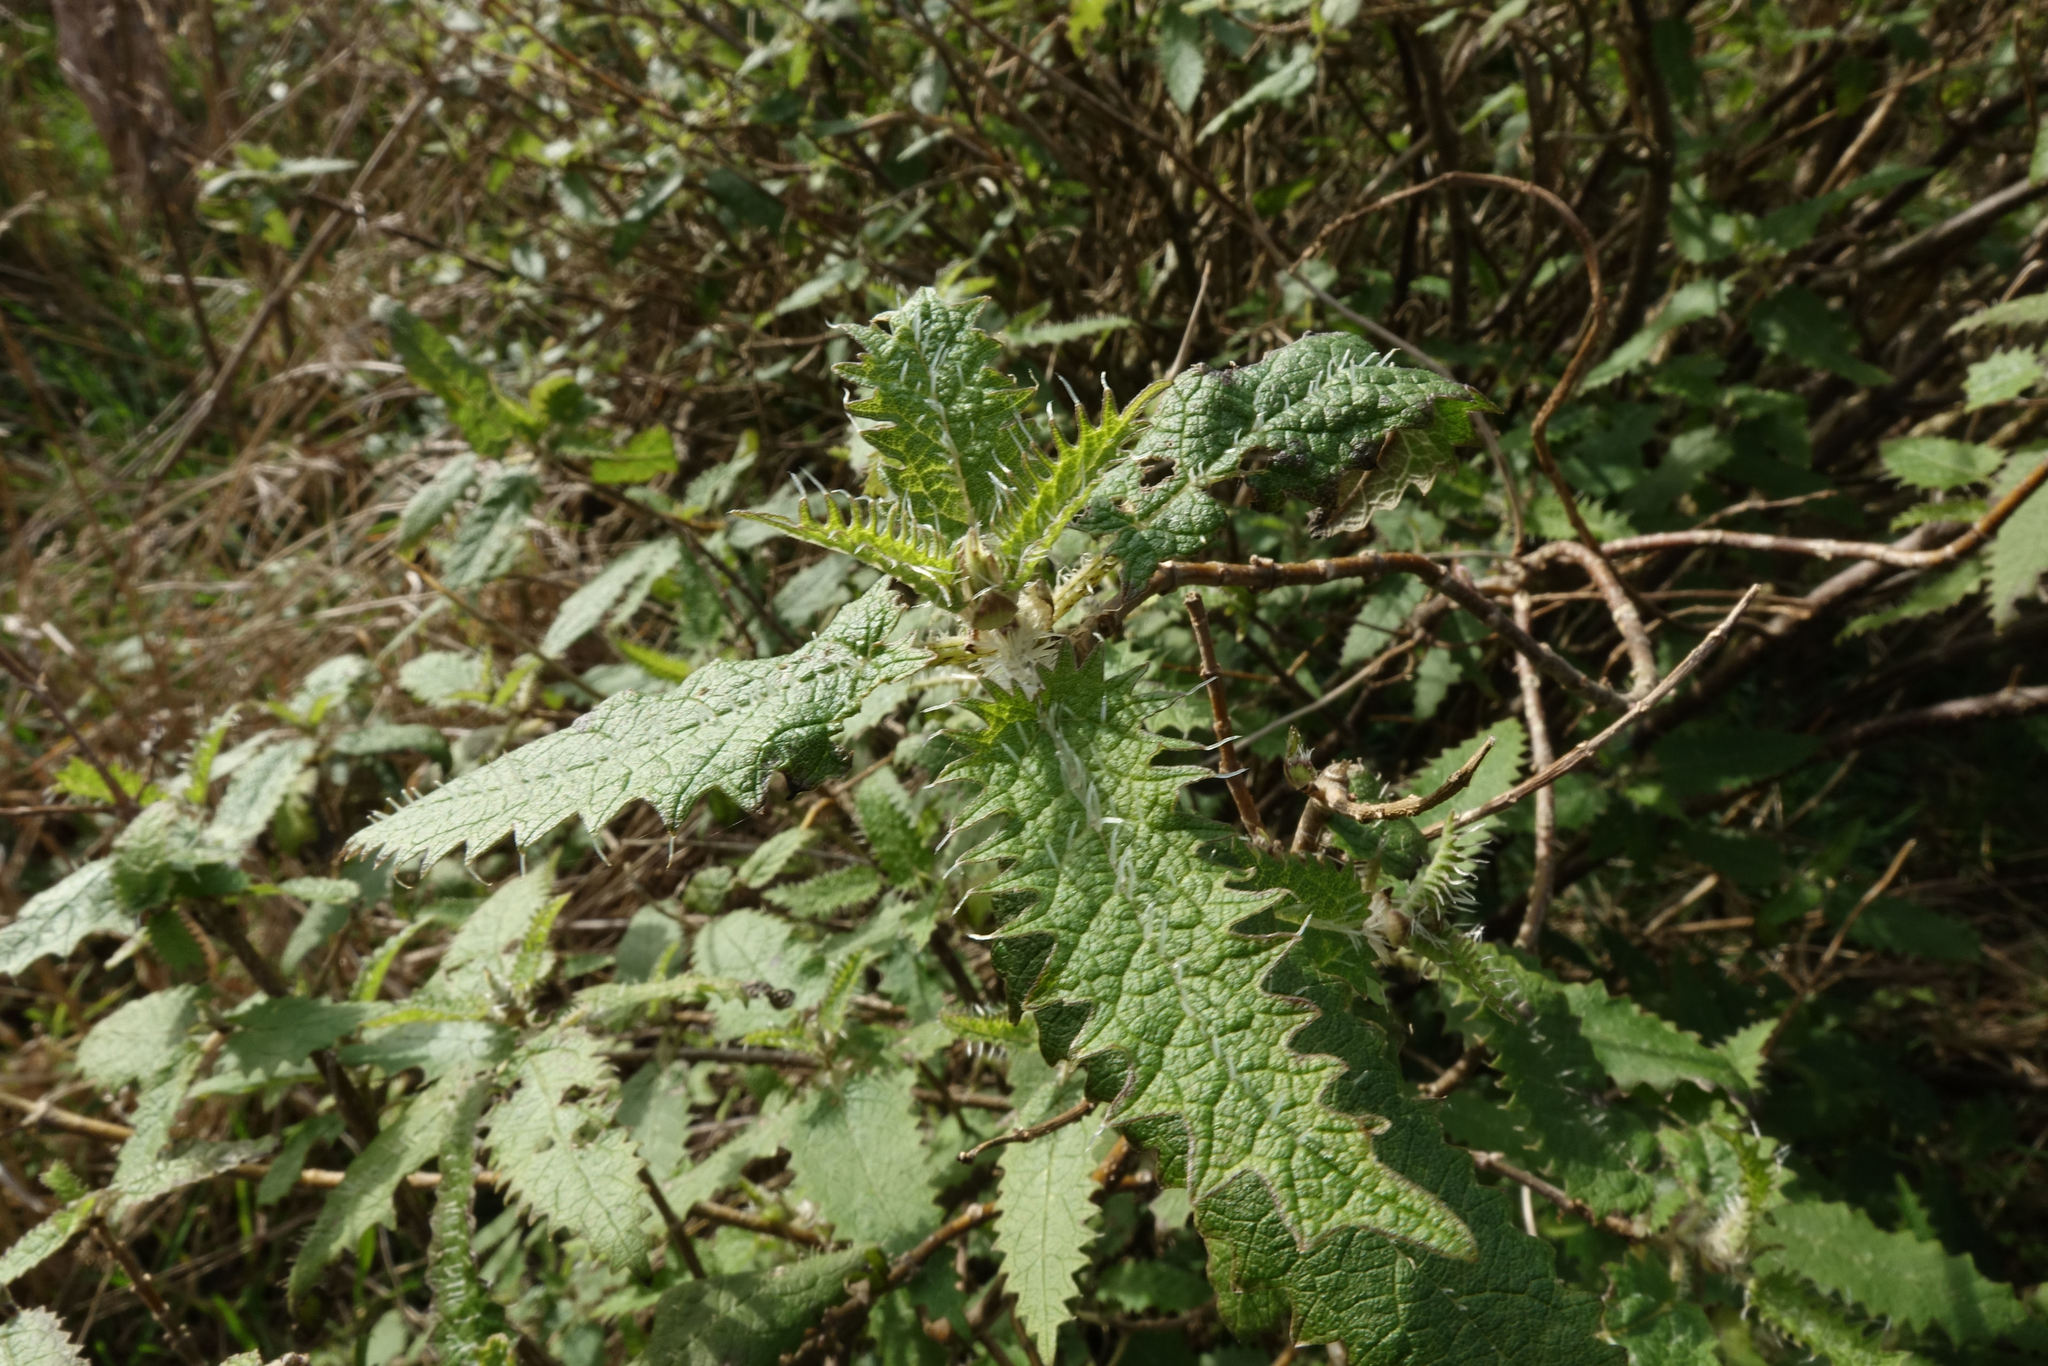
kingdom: Plantae
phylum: Tracheophyta
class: Magnoliopsida
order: Rosales
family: Urticaceae
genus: Urtica
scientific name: Urtica ferox
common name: Tree nettle
